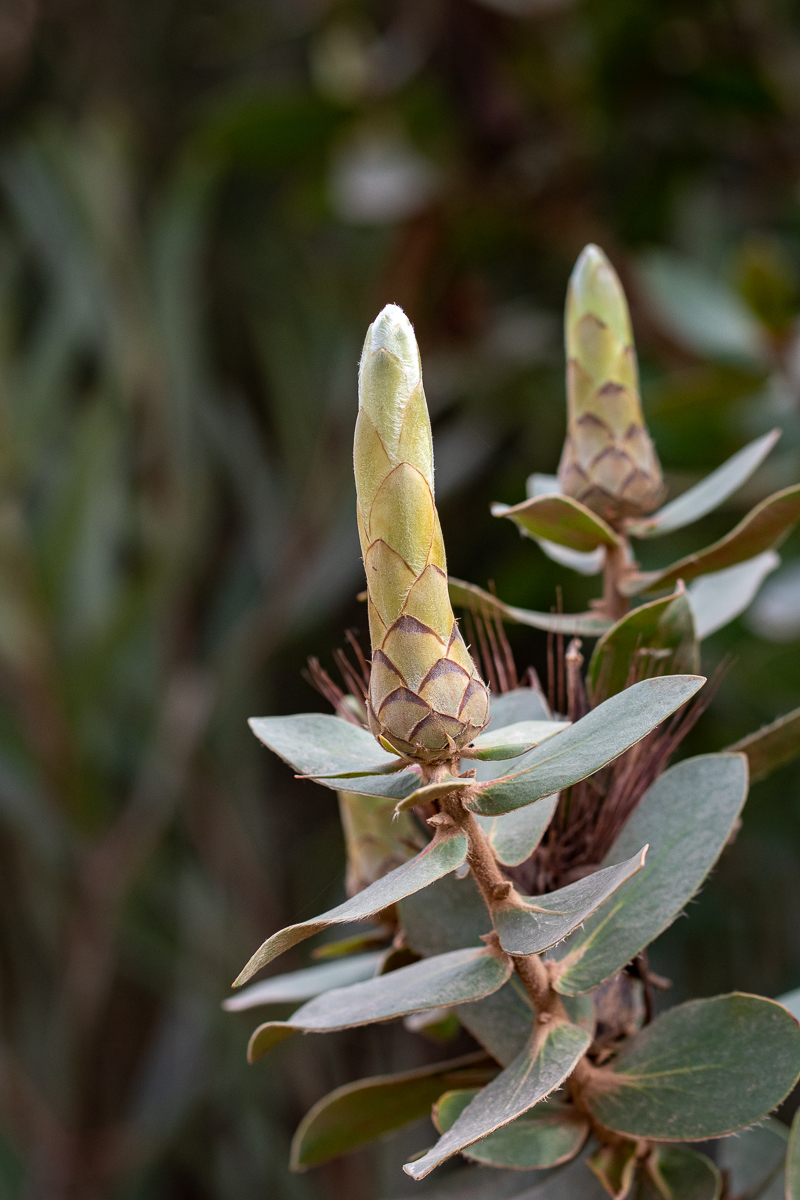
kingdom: Plantae
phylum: Tracheophyta
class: Magnoliopsida
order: Proteales
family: Proteaceae
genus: Protea
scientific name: Protea aurea
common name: Shuttlecock sugarbush
